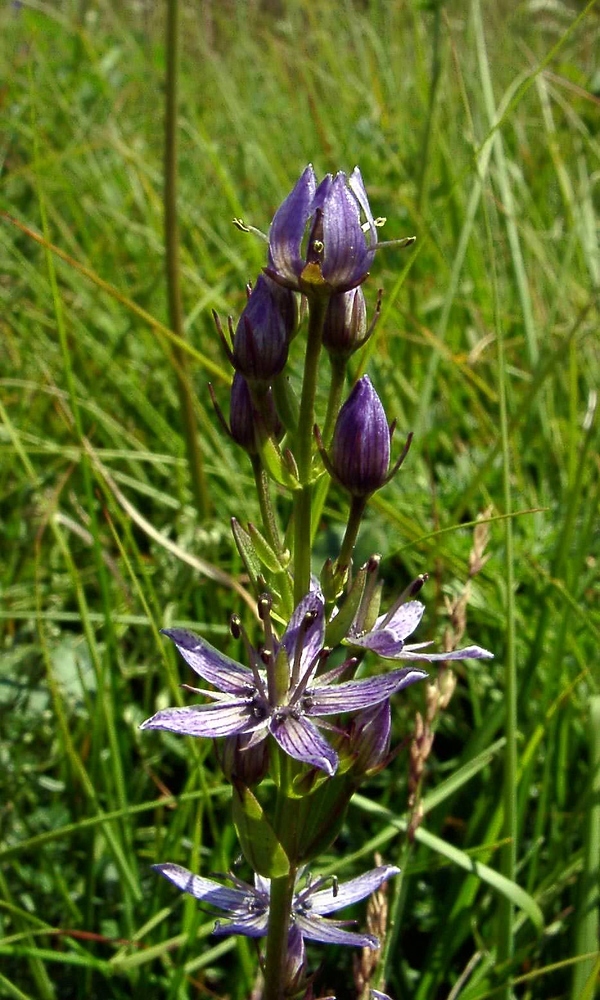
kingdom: Plantae
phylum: Tracheophyta
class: Magnoliopsida
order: Gentianales
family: Gentianaceae
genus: Swertia
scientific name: Swertia perennis
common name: Alpine bog swertia
